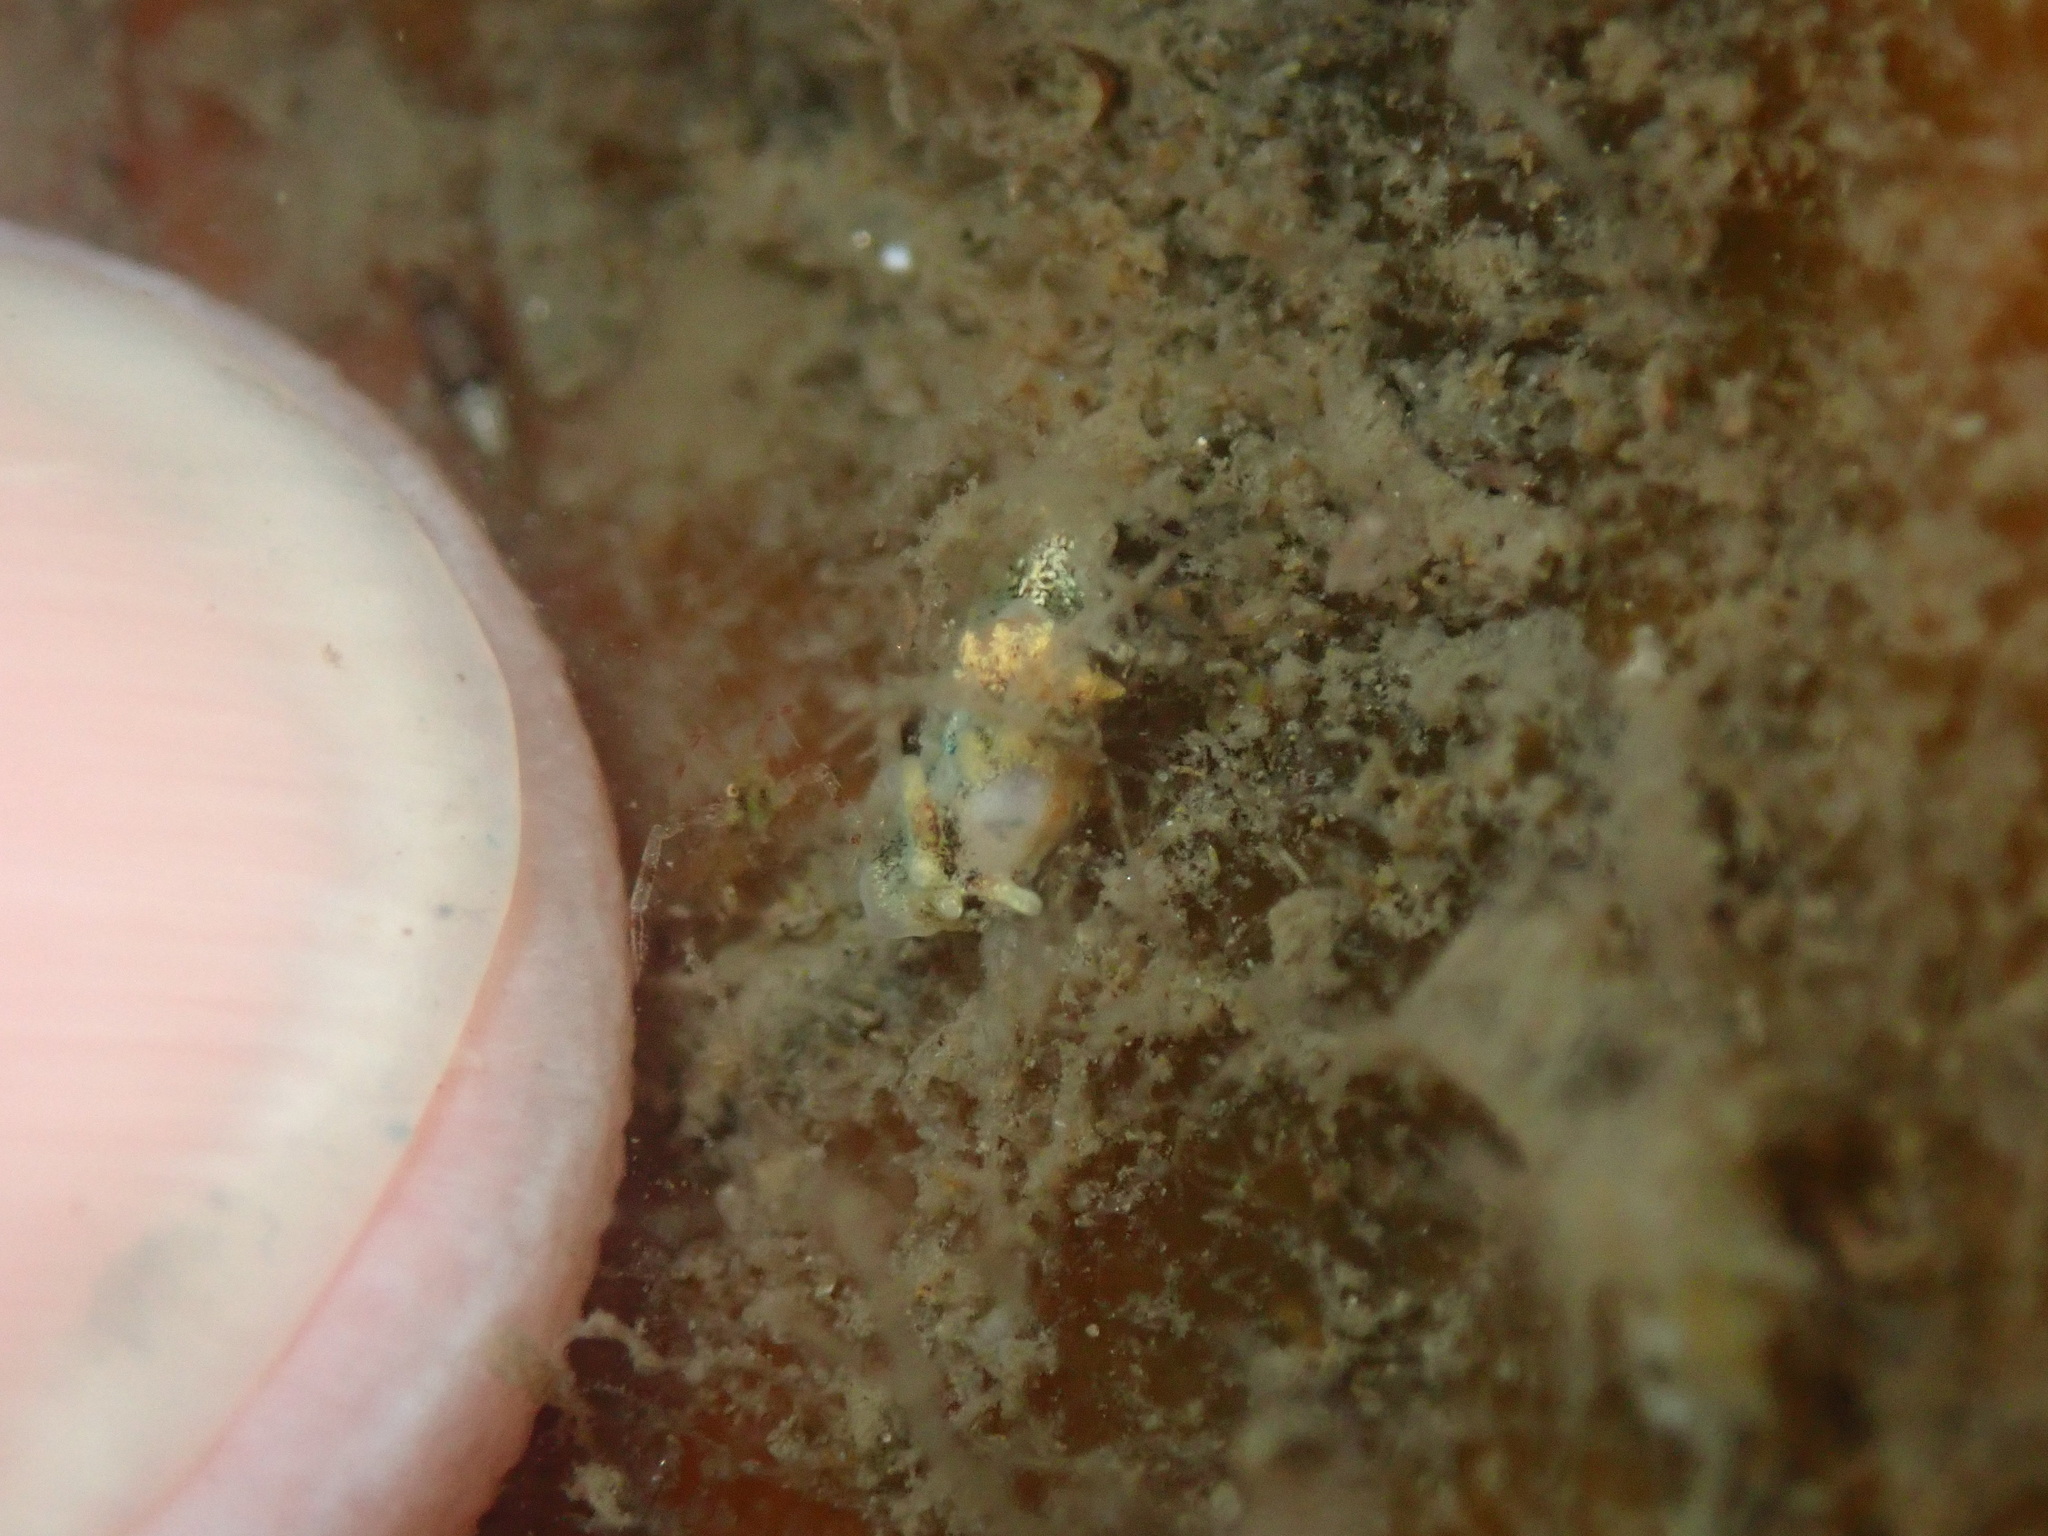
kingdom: Animalia
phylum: Mollusca
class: Gastropoda
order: Nudibranchia
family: Goniodorididae
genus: Okenia
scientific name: Okenia
